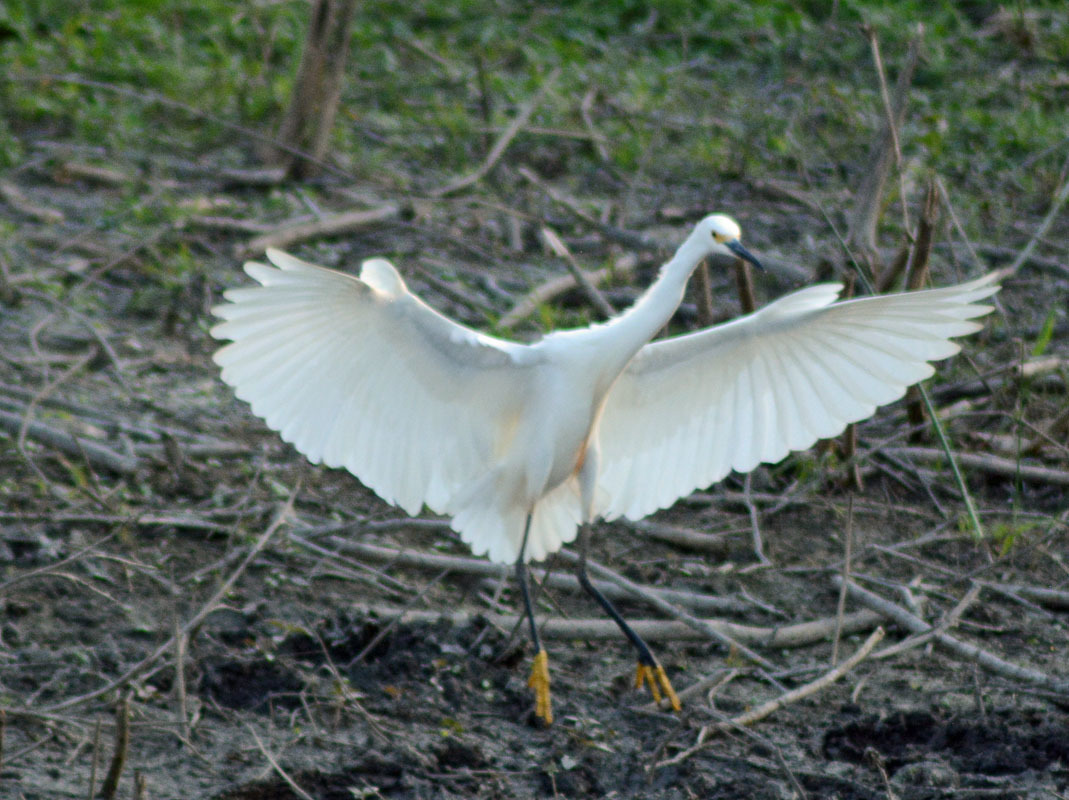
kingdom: Animalia
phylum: Chordata
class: Aves
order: Pelecaniformes
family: Ardeidae
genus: Egretta
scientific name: Egretta thula
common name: Snowy egret
